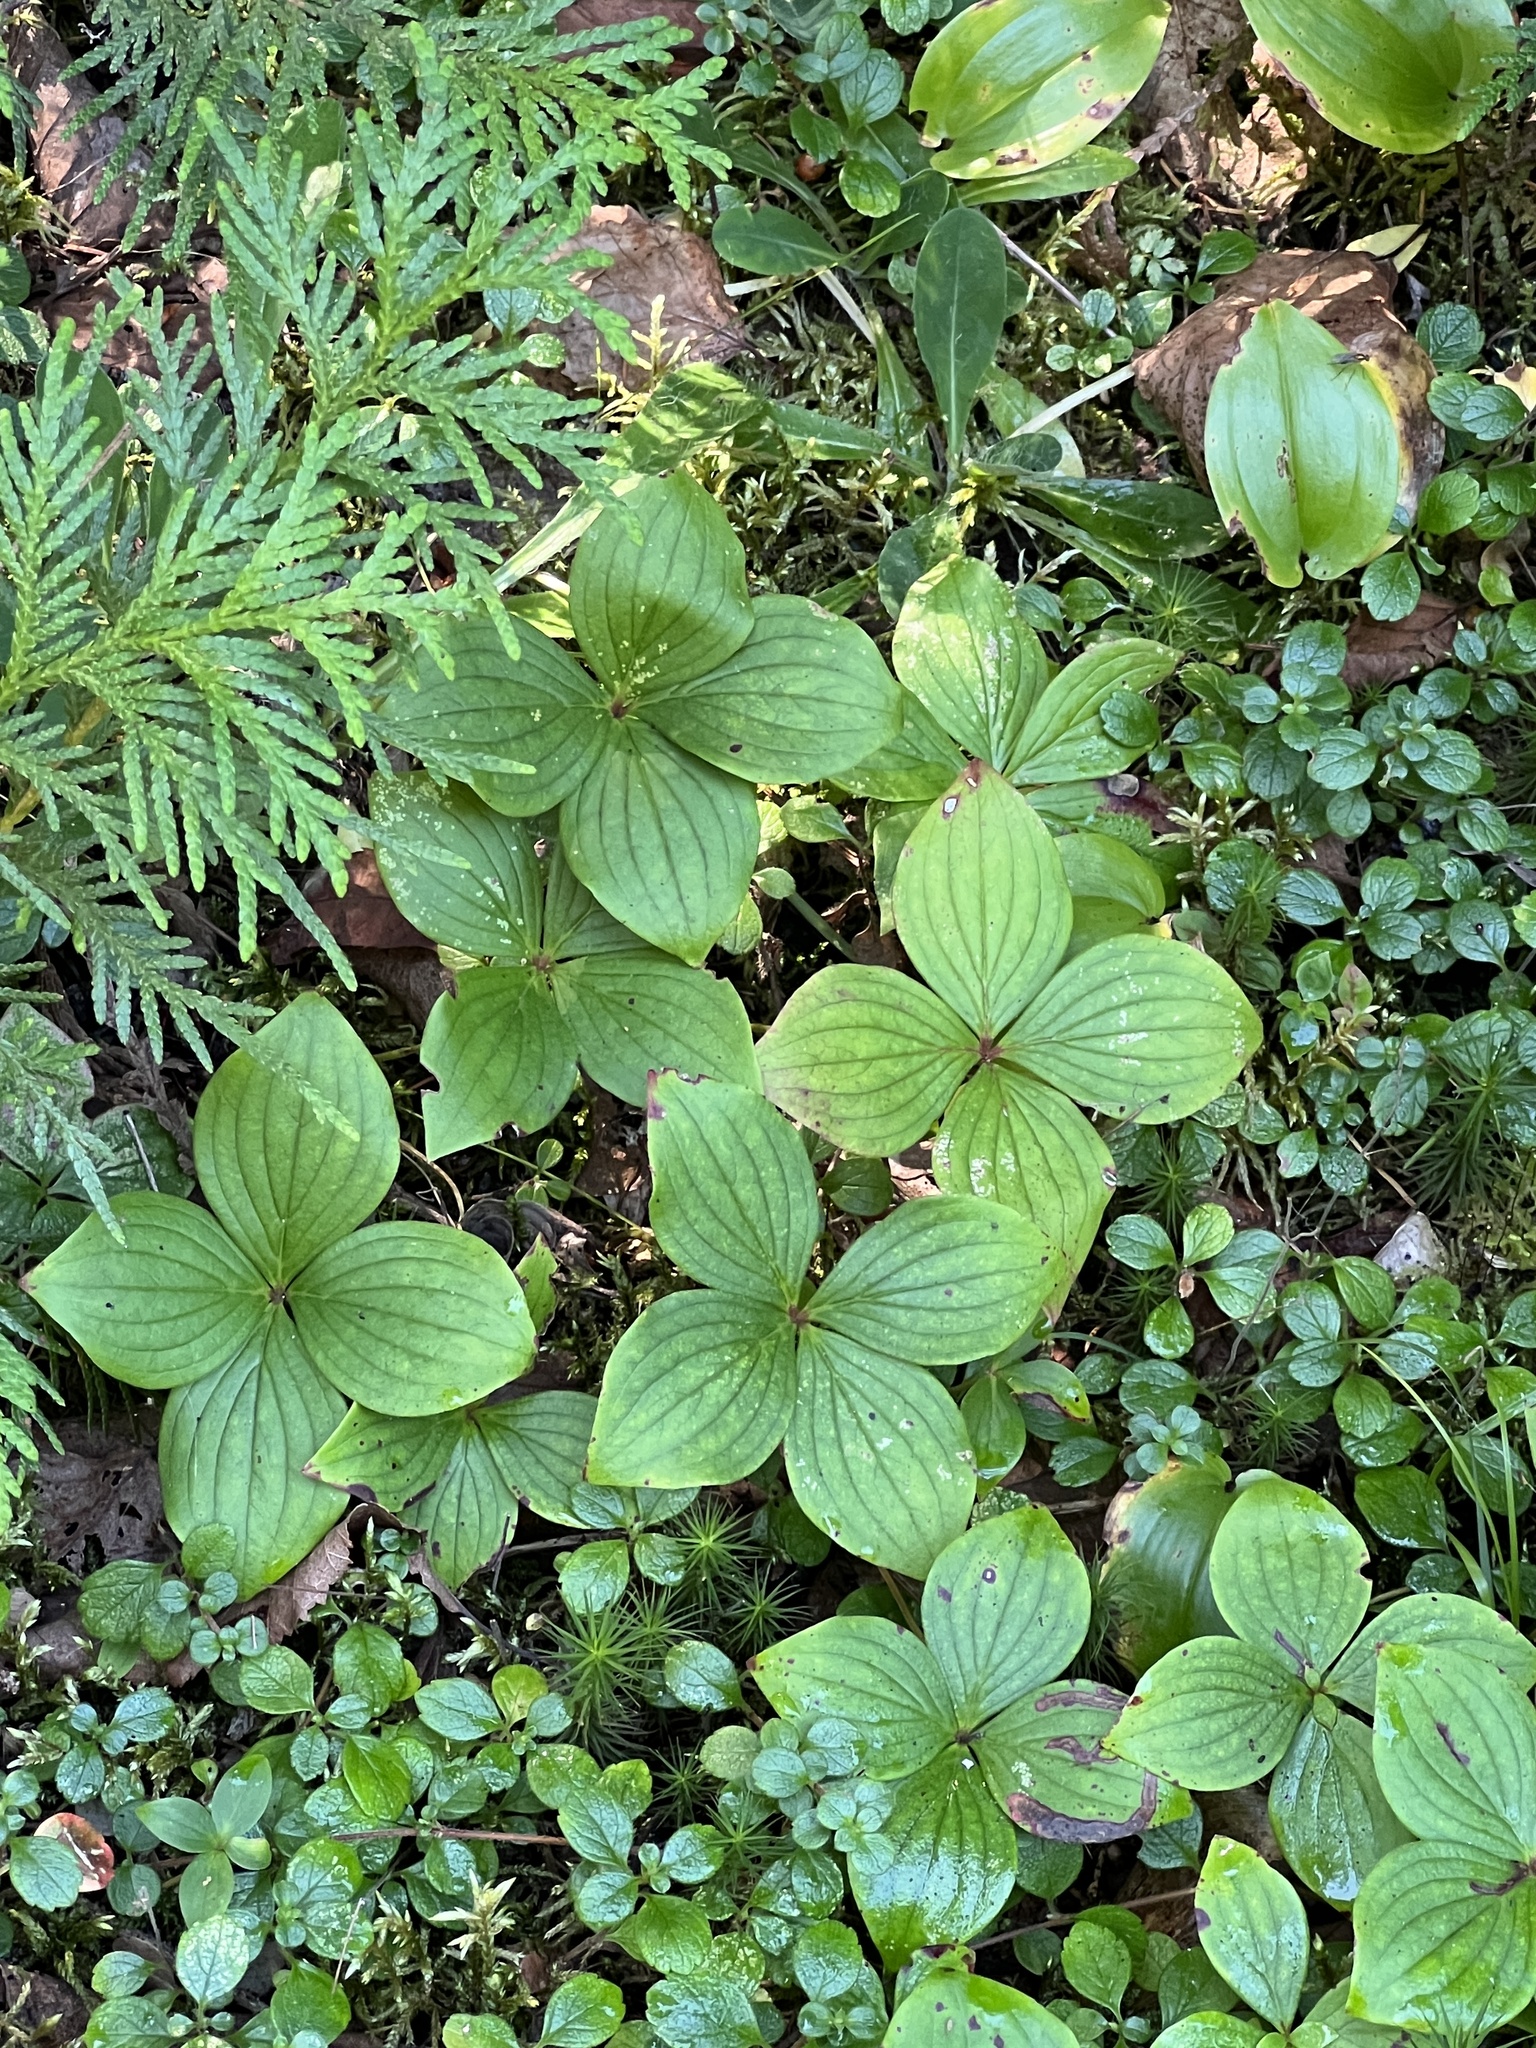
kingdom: Plantae
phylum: Tracheophyta
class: Magnoliopsida
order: Cornales
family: Cornaceae
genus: Cornus
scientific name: Cornus canadensis
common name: Creeping dogwood
